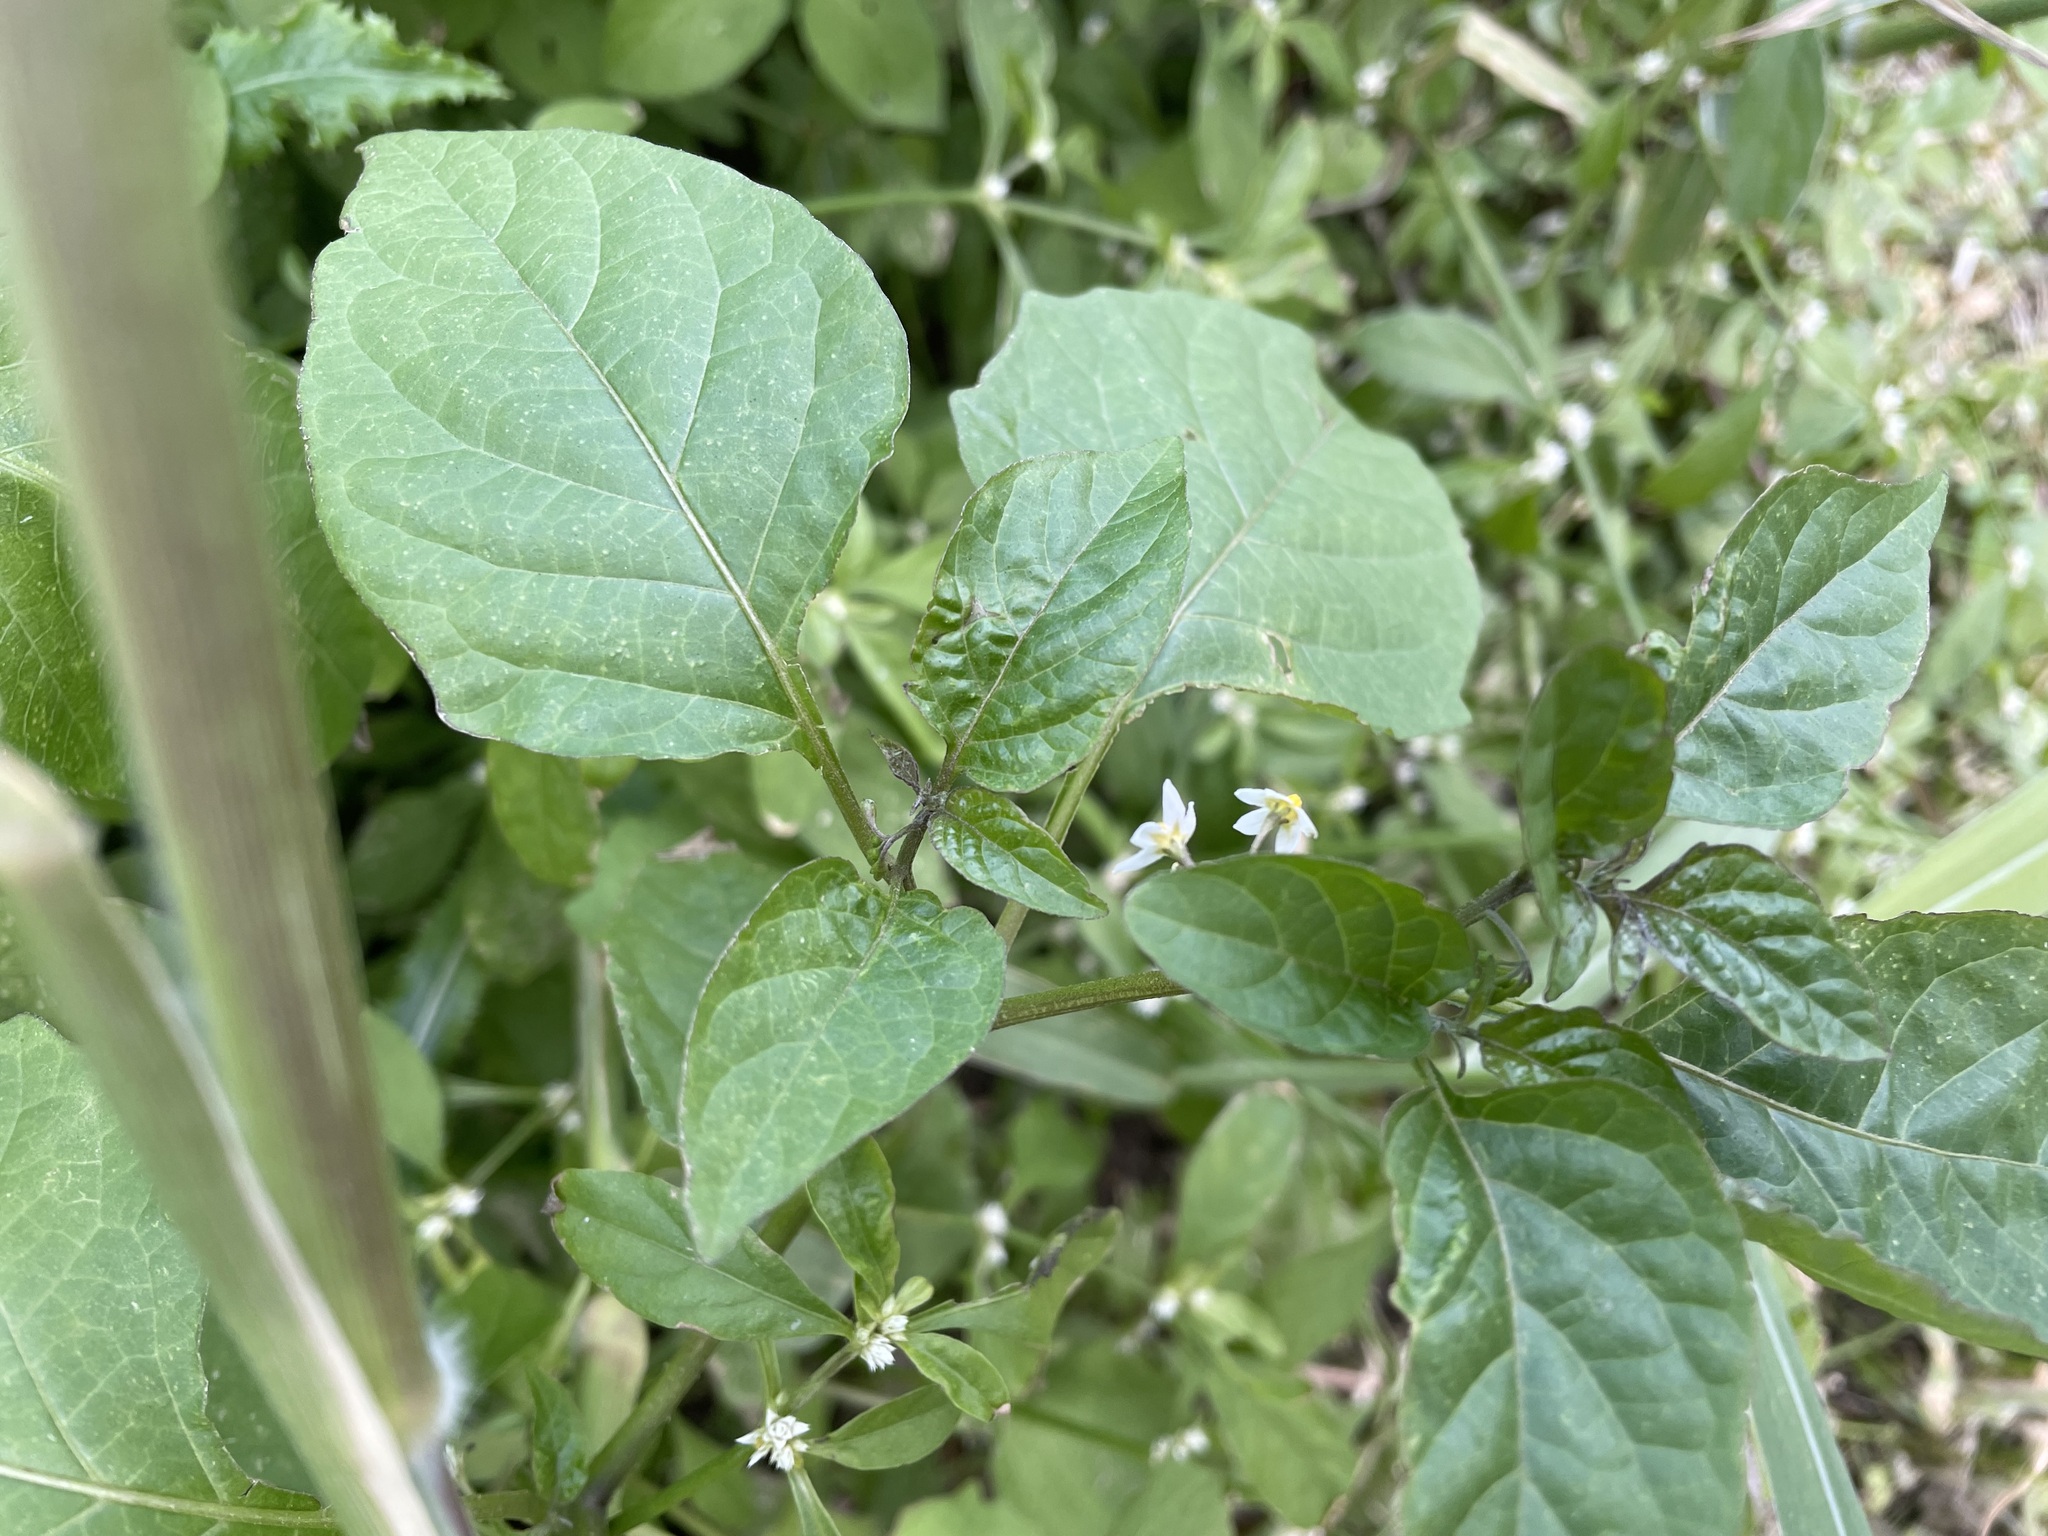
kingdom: Plantae
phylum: Tracheophyta
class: Magnoliopsida
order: Solanales
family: Solanaceae
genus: Solanum
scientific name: Solanum americanum
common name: American black nightshade
